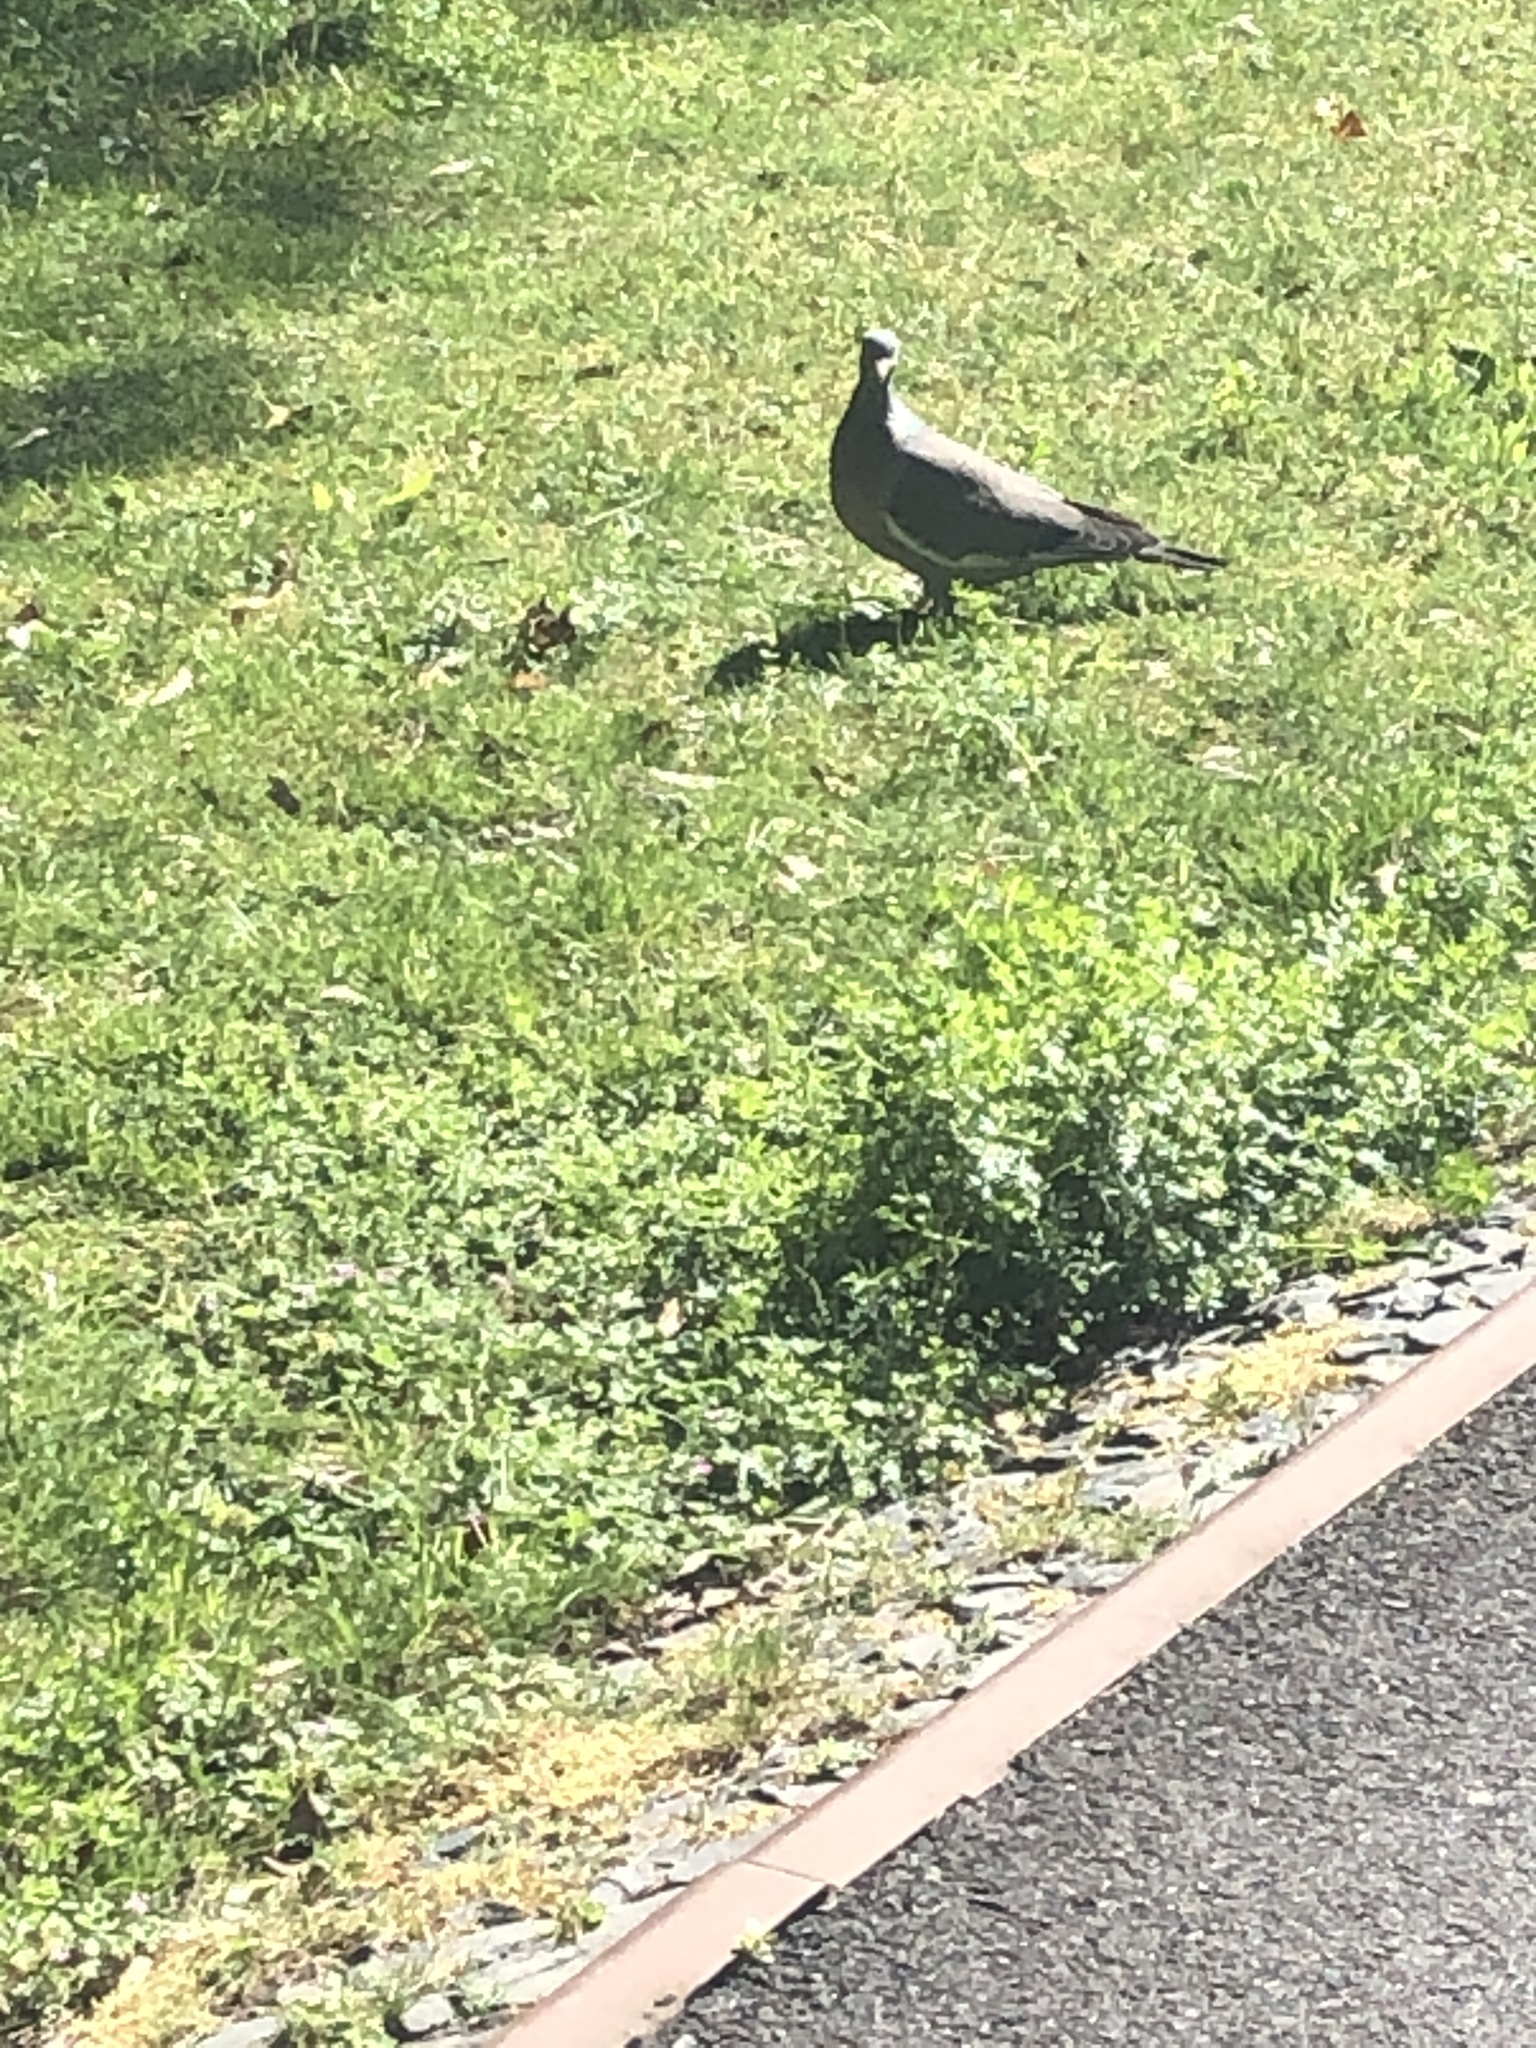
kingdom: Animalia
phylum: Chordata
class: Aves
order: Columbiformes
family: Columbidae
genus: Columba
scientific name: Columba palumbus
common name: Common wood pigeon
